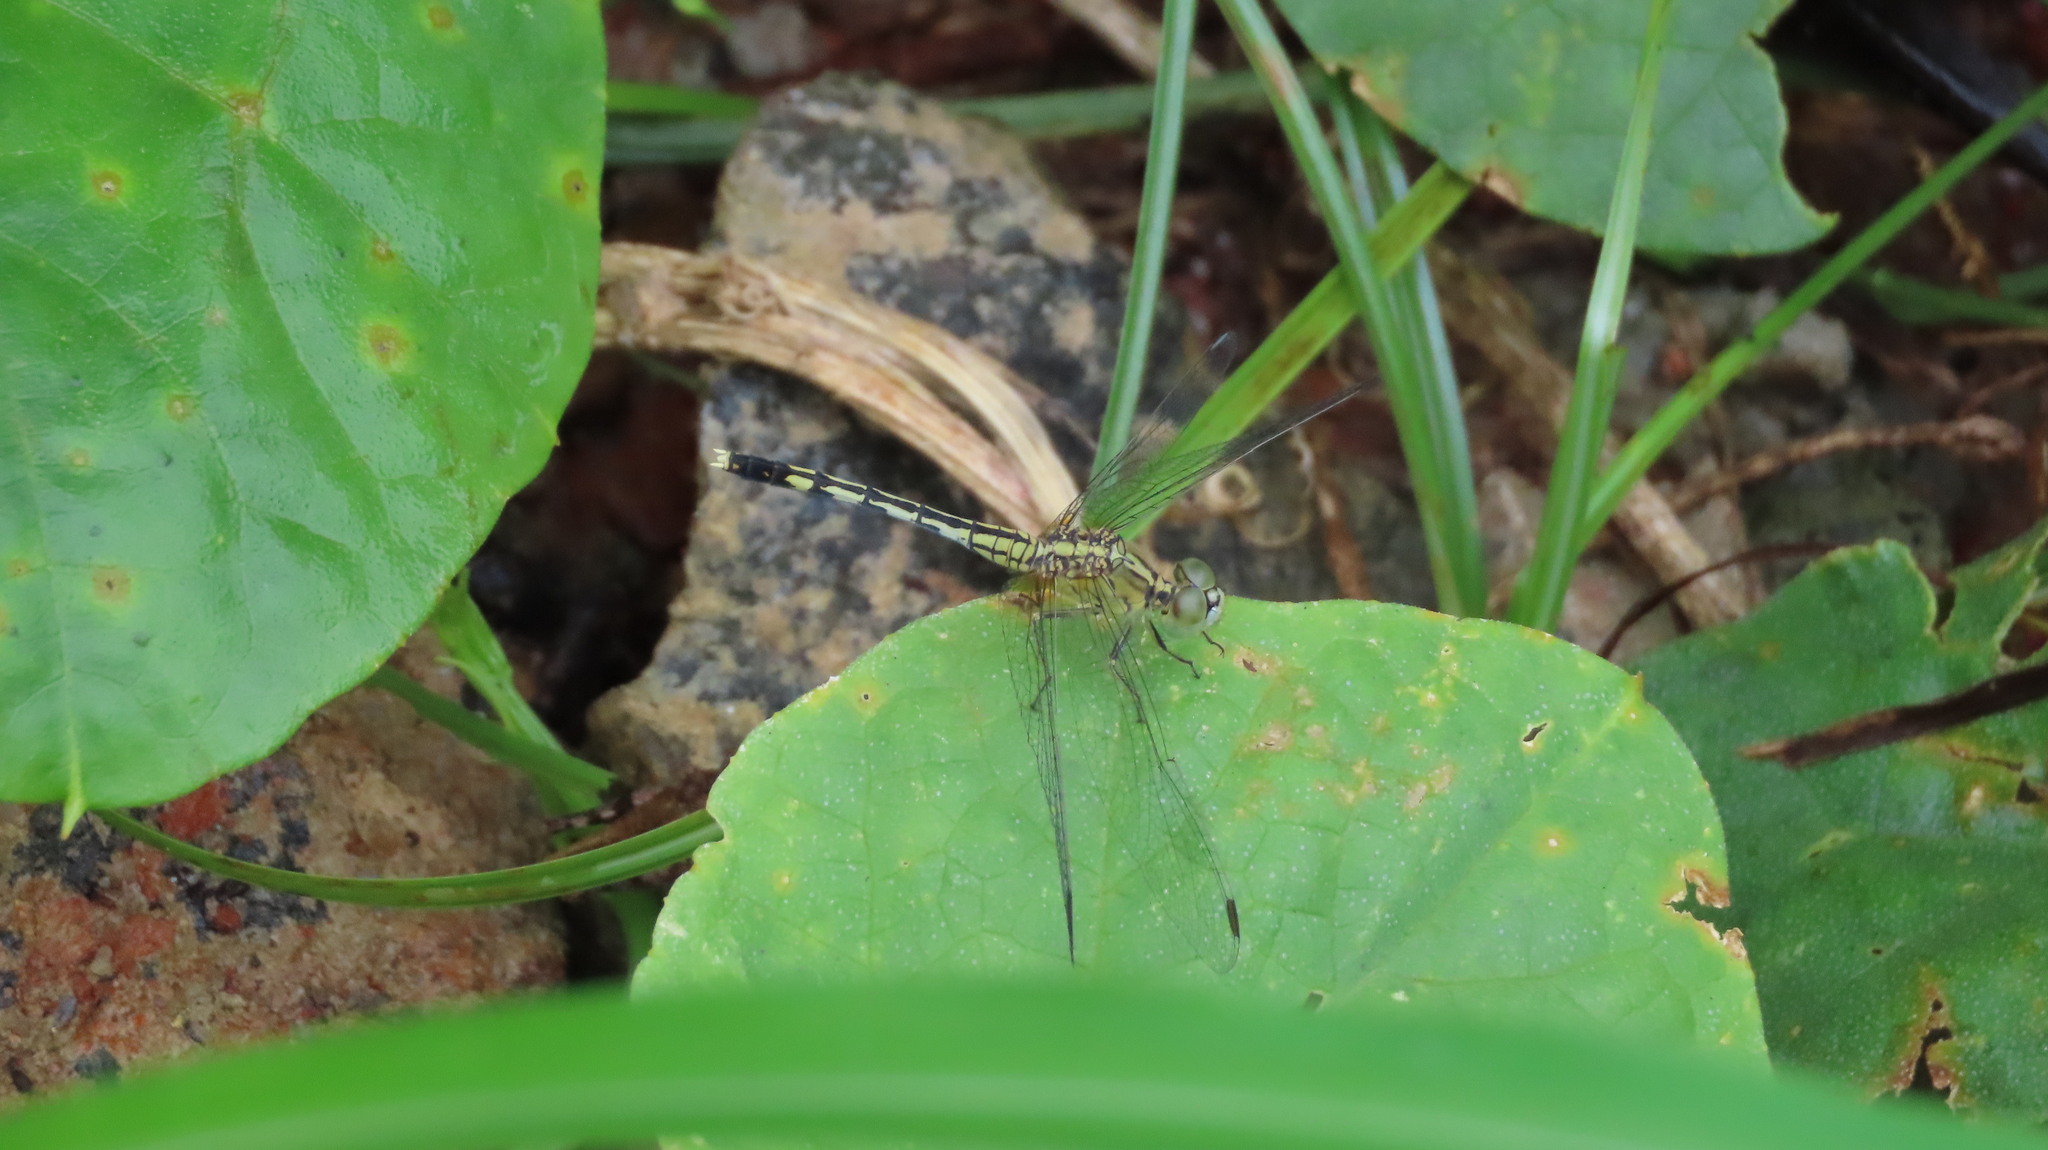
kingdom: Animalia
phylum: Arthropoda
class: Insecta
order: Odonata
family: Libellulidae
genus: Diplacodes
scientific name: Diplacodes trivialis
